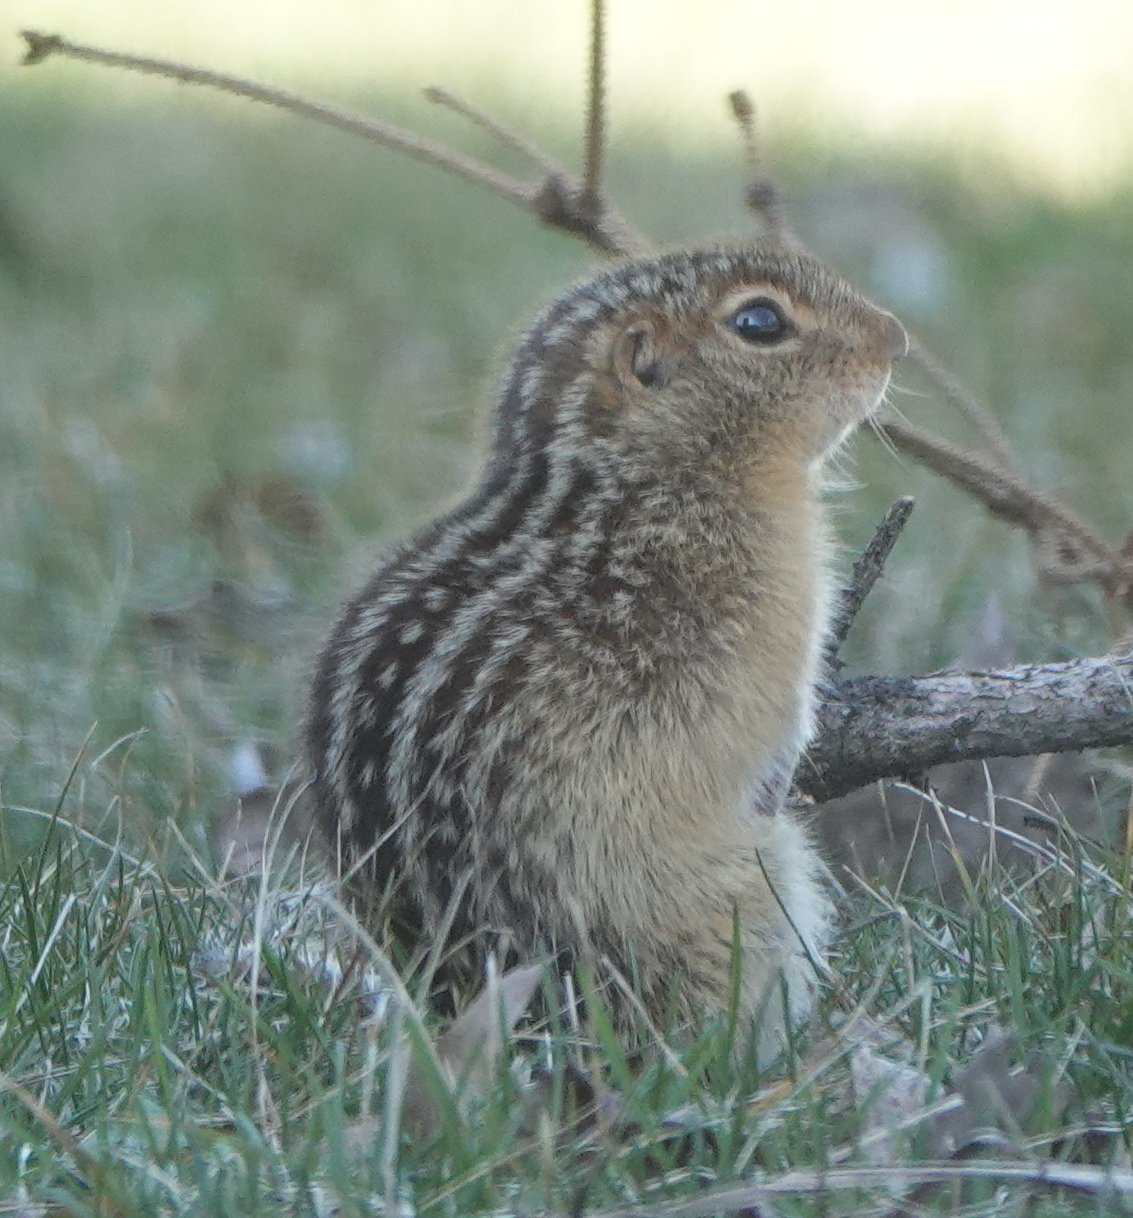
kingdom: Animalia
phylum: Chordata
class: Mammalia
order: Rodentia
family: Sciuridae
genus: Ictidomys
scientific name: Ictidomys tridecemlineatus
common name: Thirteen-lined ground squirrel
